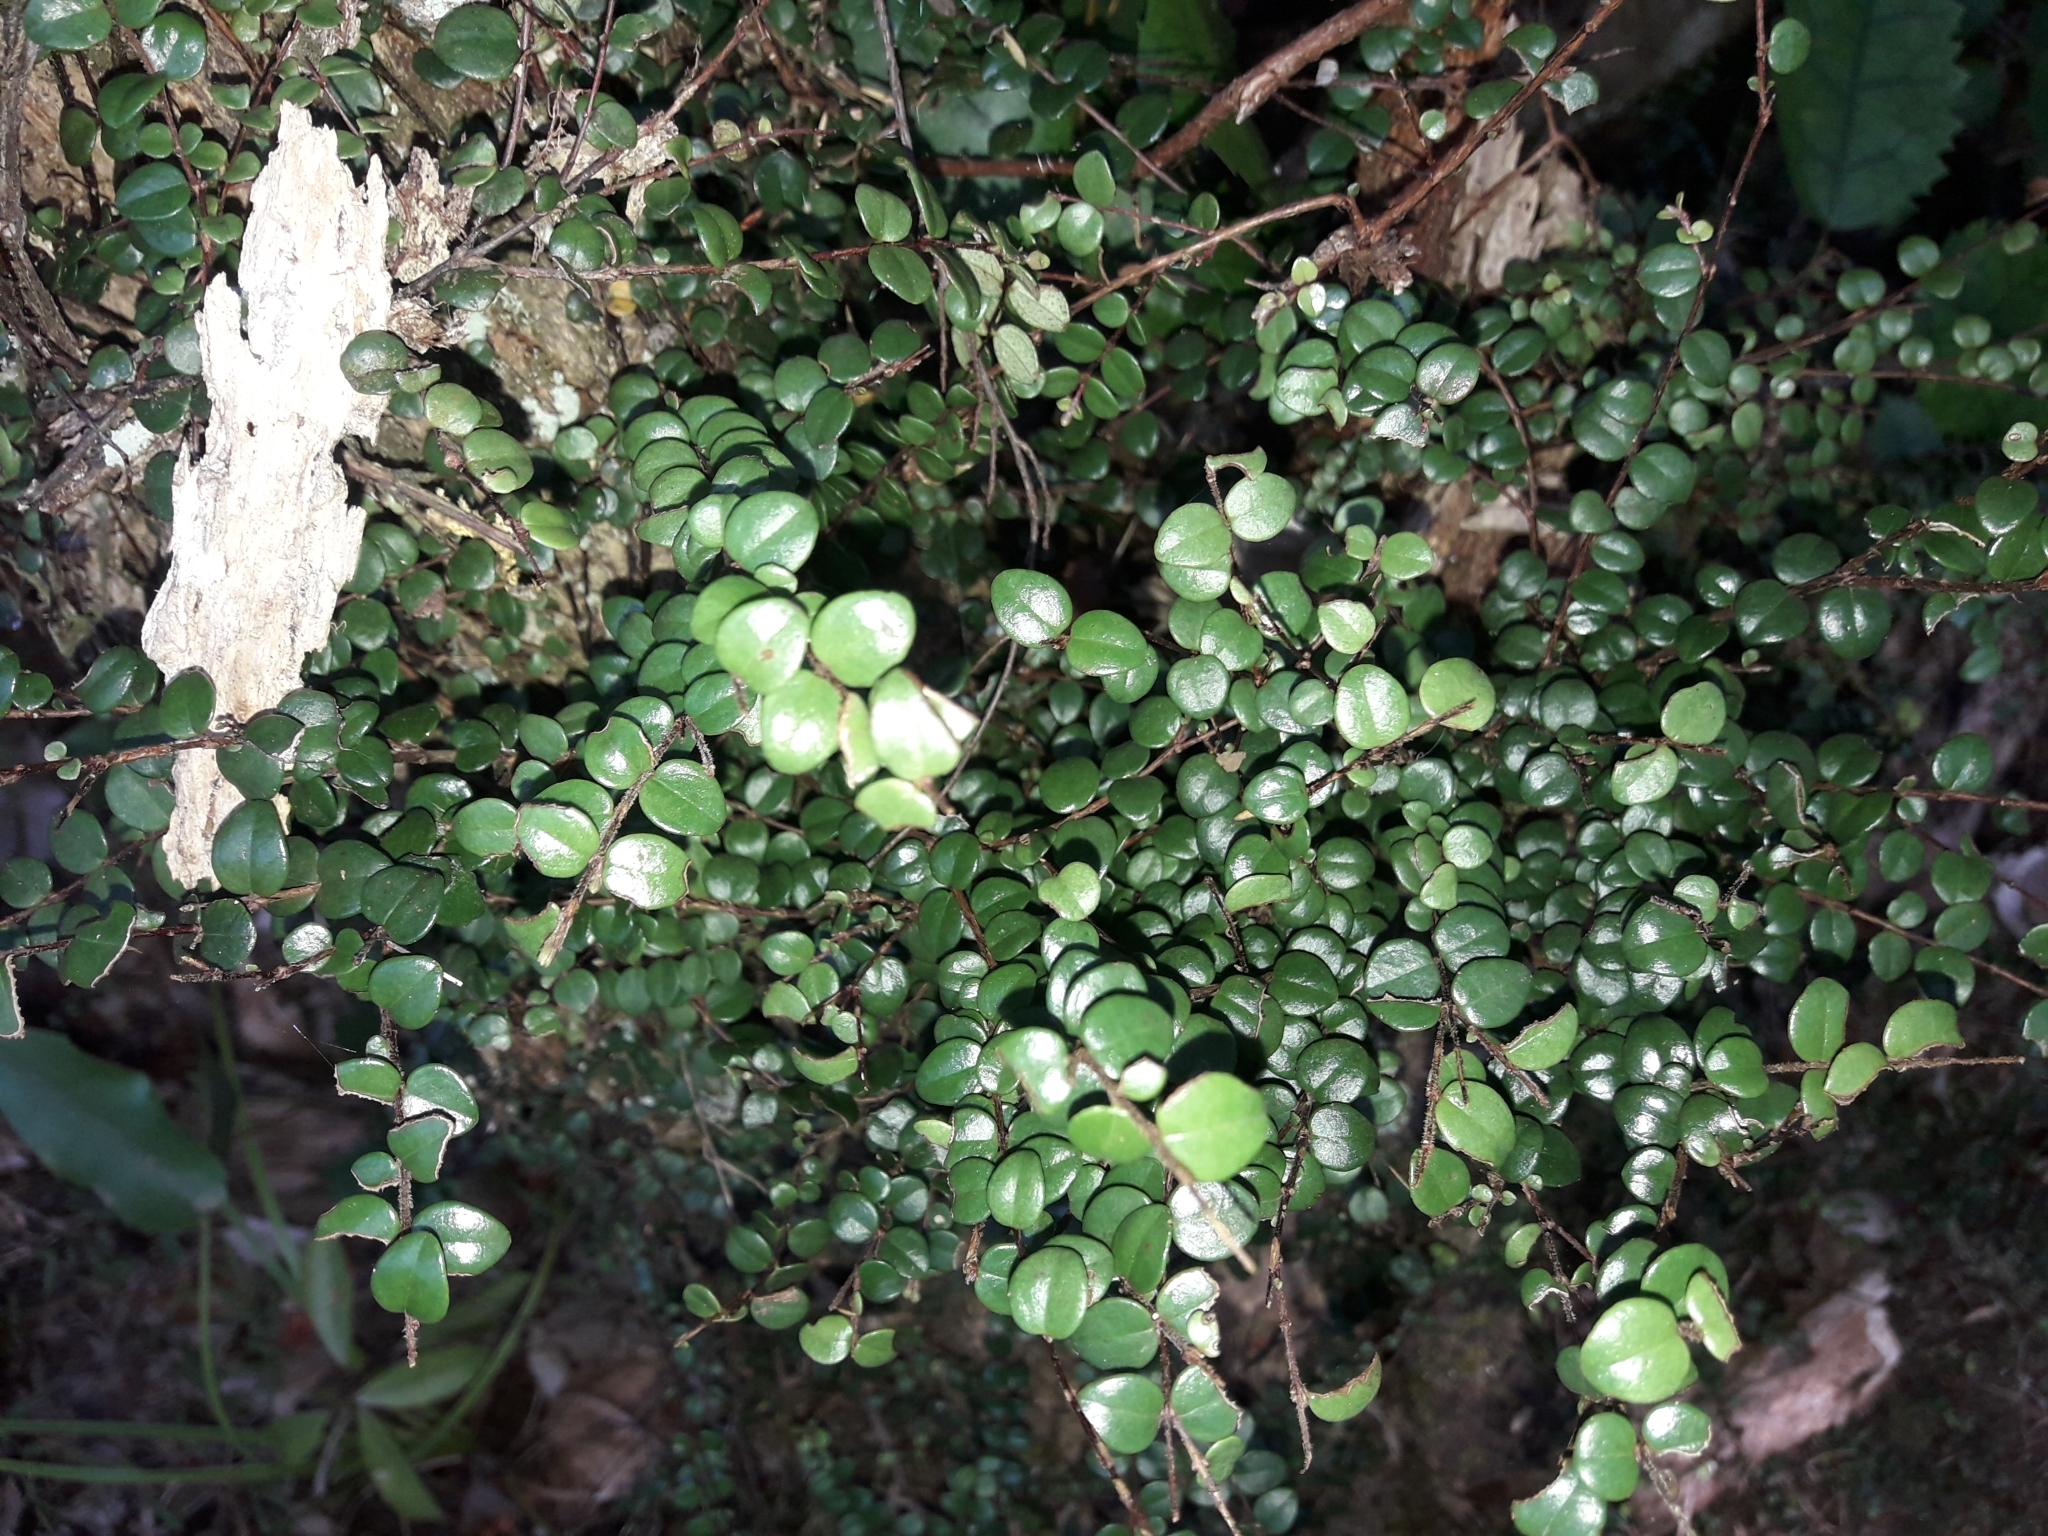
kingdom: Plantae
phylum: Tracheophyta
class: Magnoliopsida
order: Myrtales
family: Myrtaceae
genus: Metrosideros
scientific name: Metrosideros perforata
